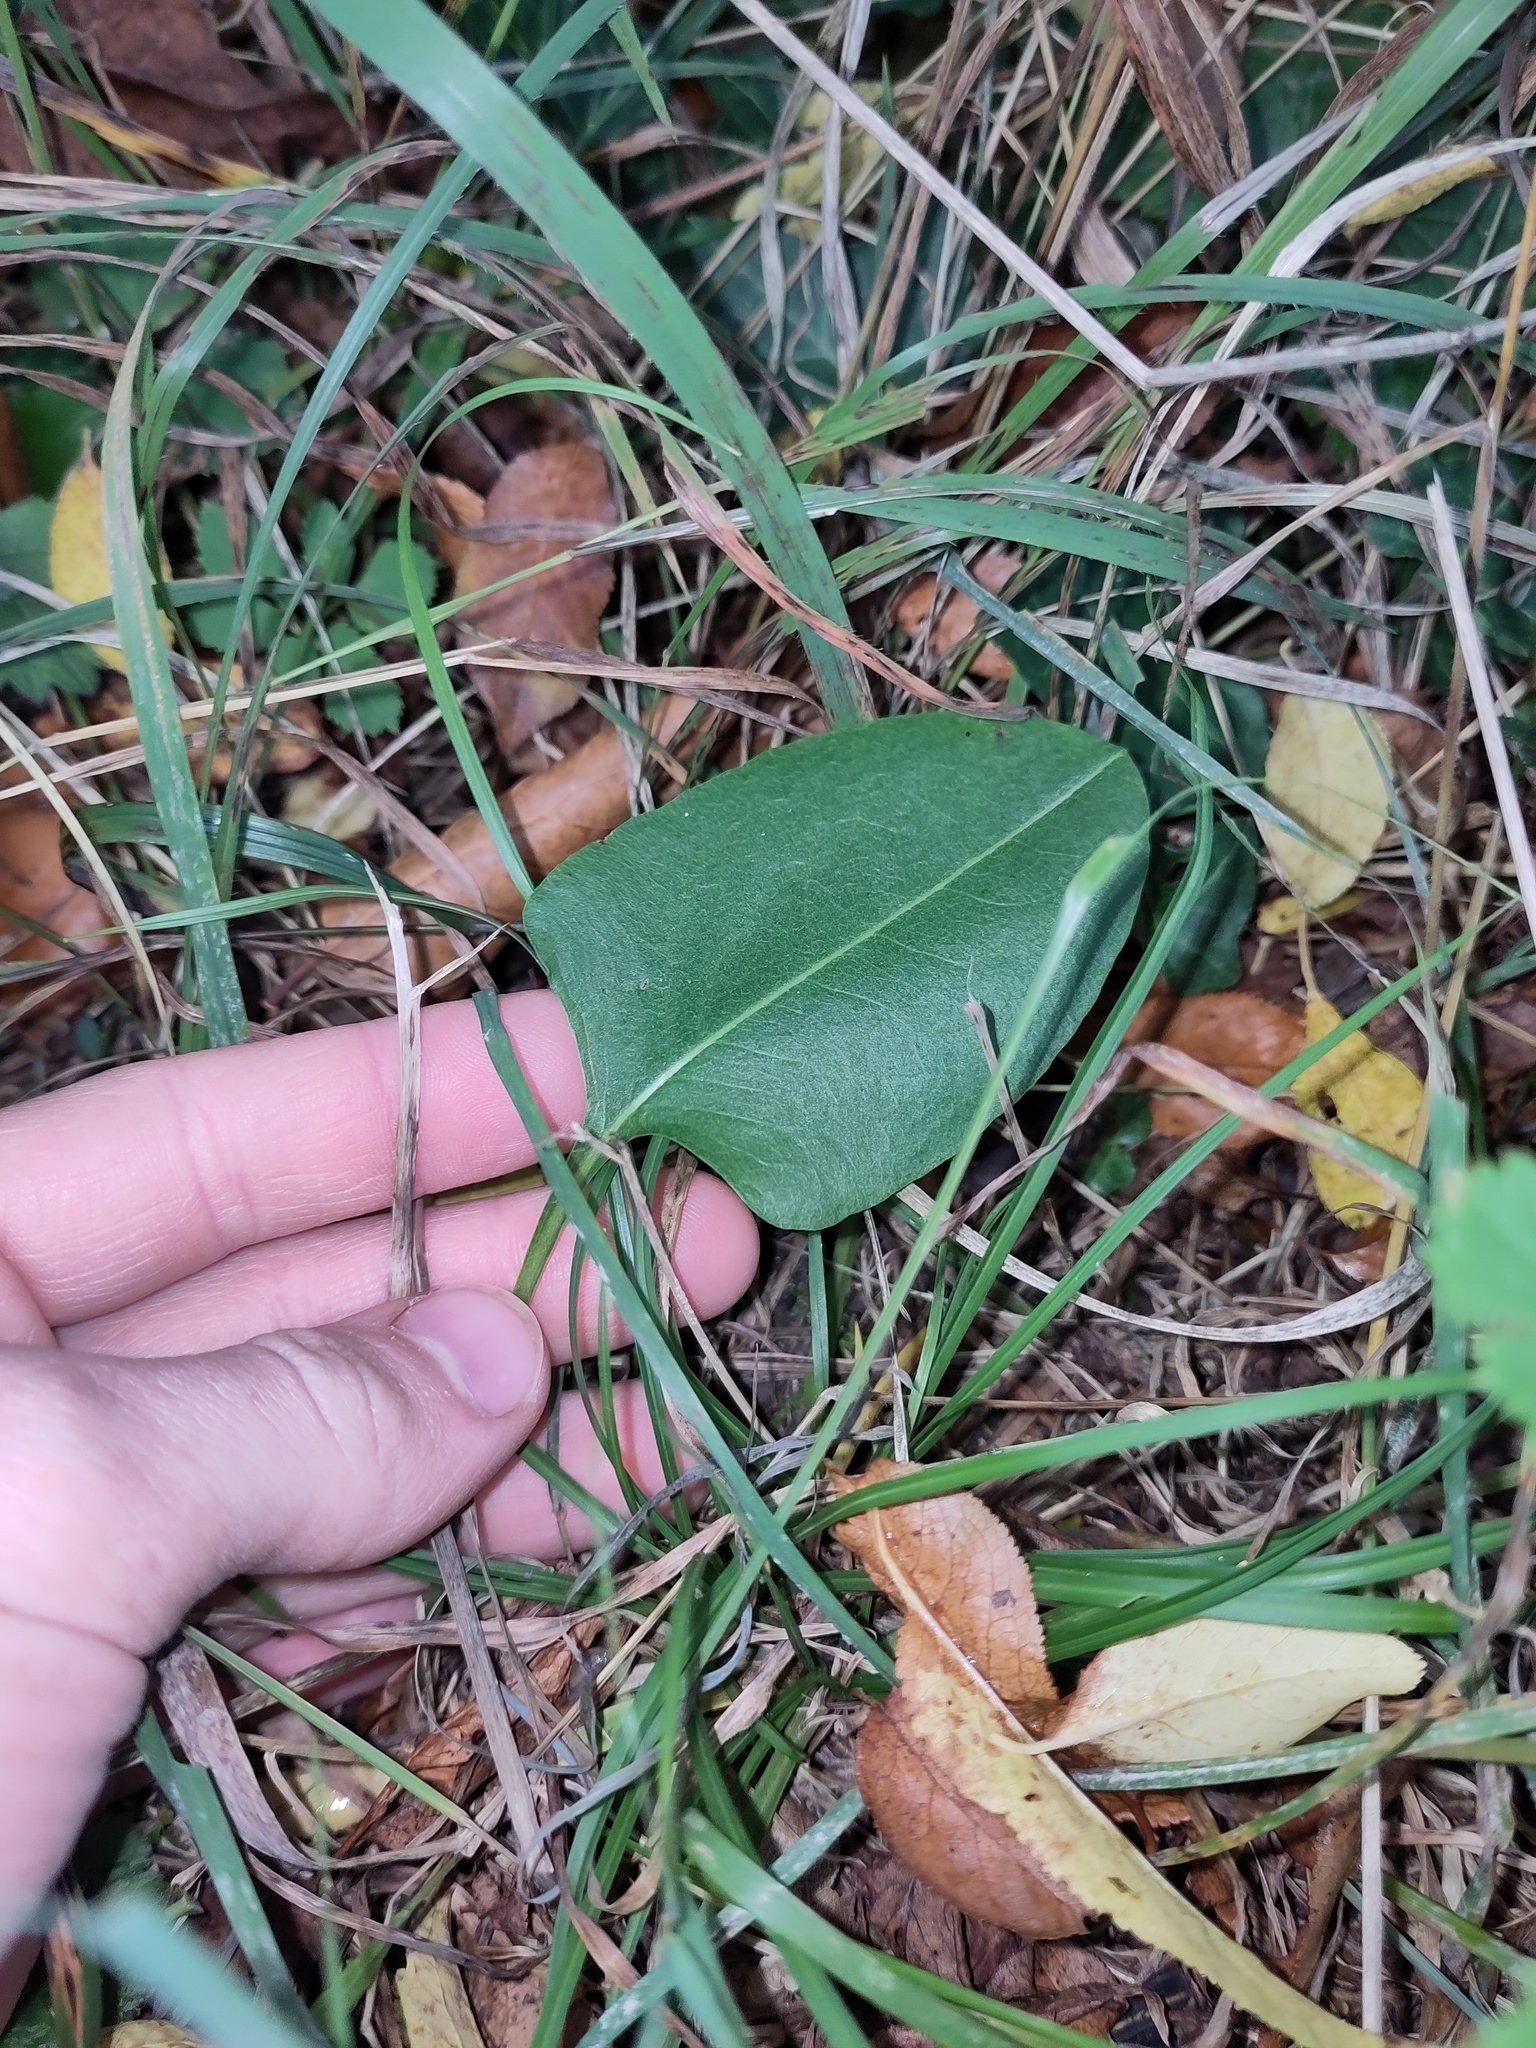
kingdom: Plantae
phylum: Tracheophyta
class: Magnoliopsida
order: Caryophyllales
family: Polygonaceae
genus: Bistorta
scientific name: Bistorta officinalis
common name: Common bistort
